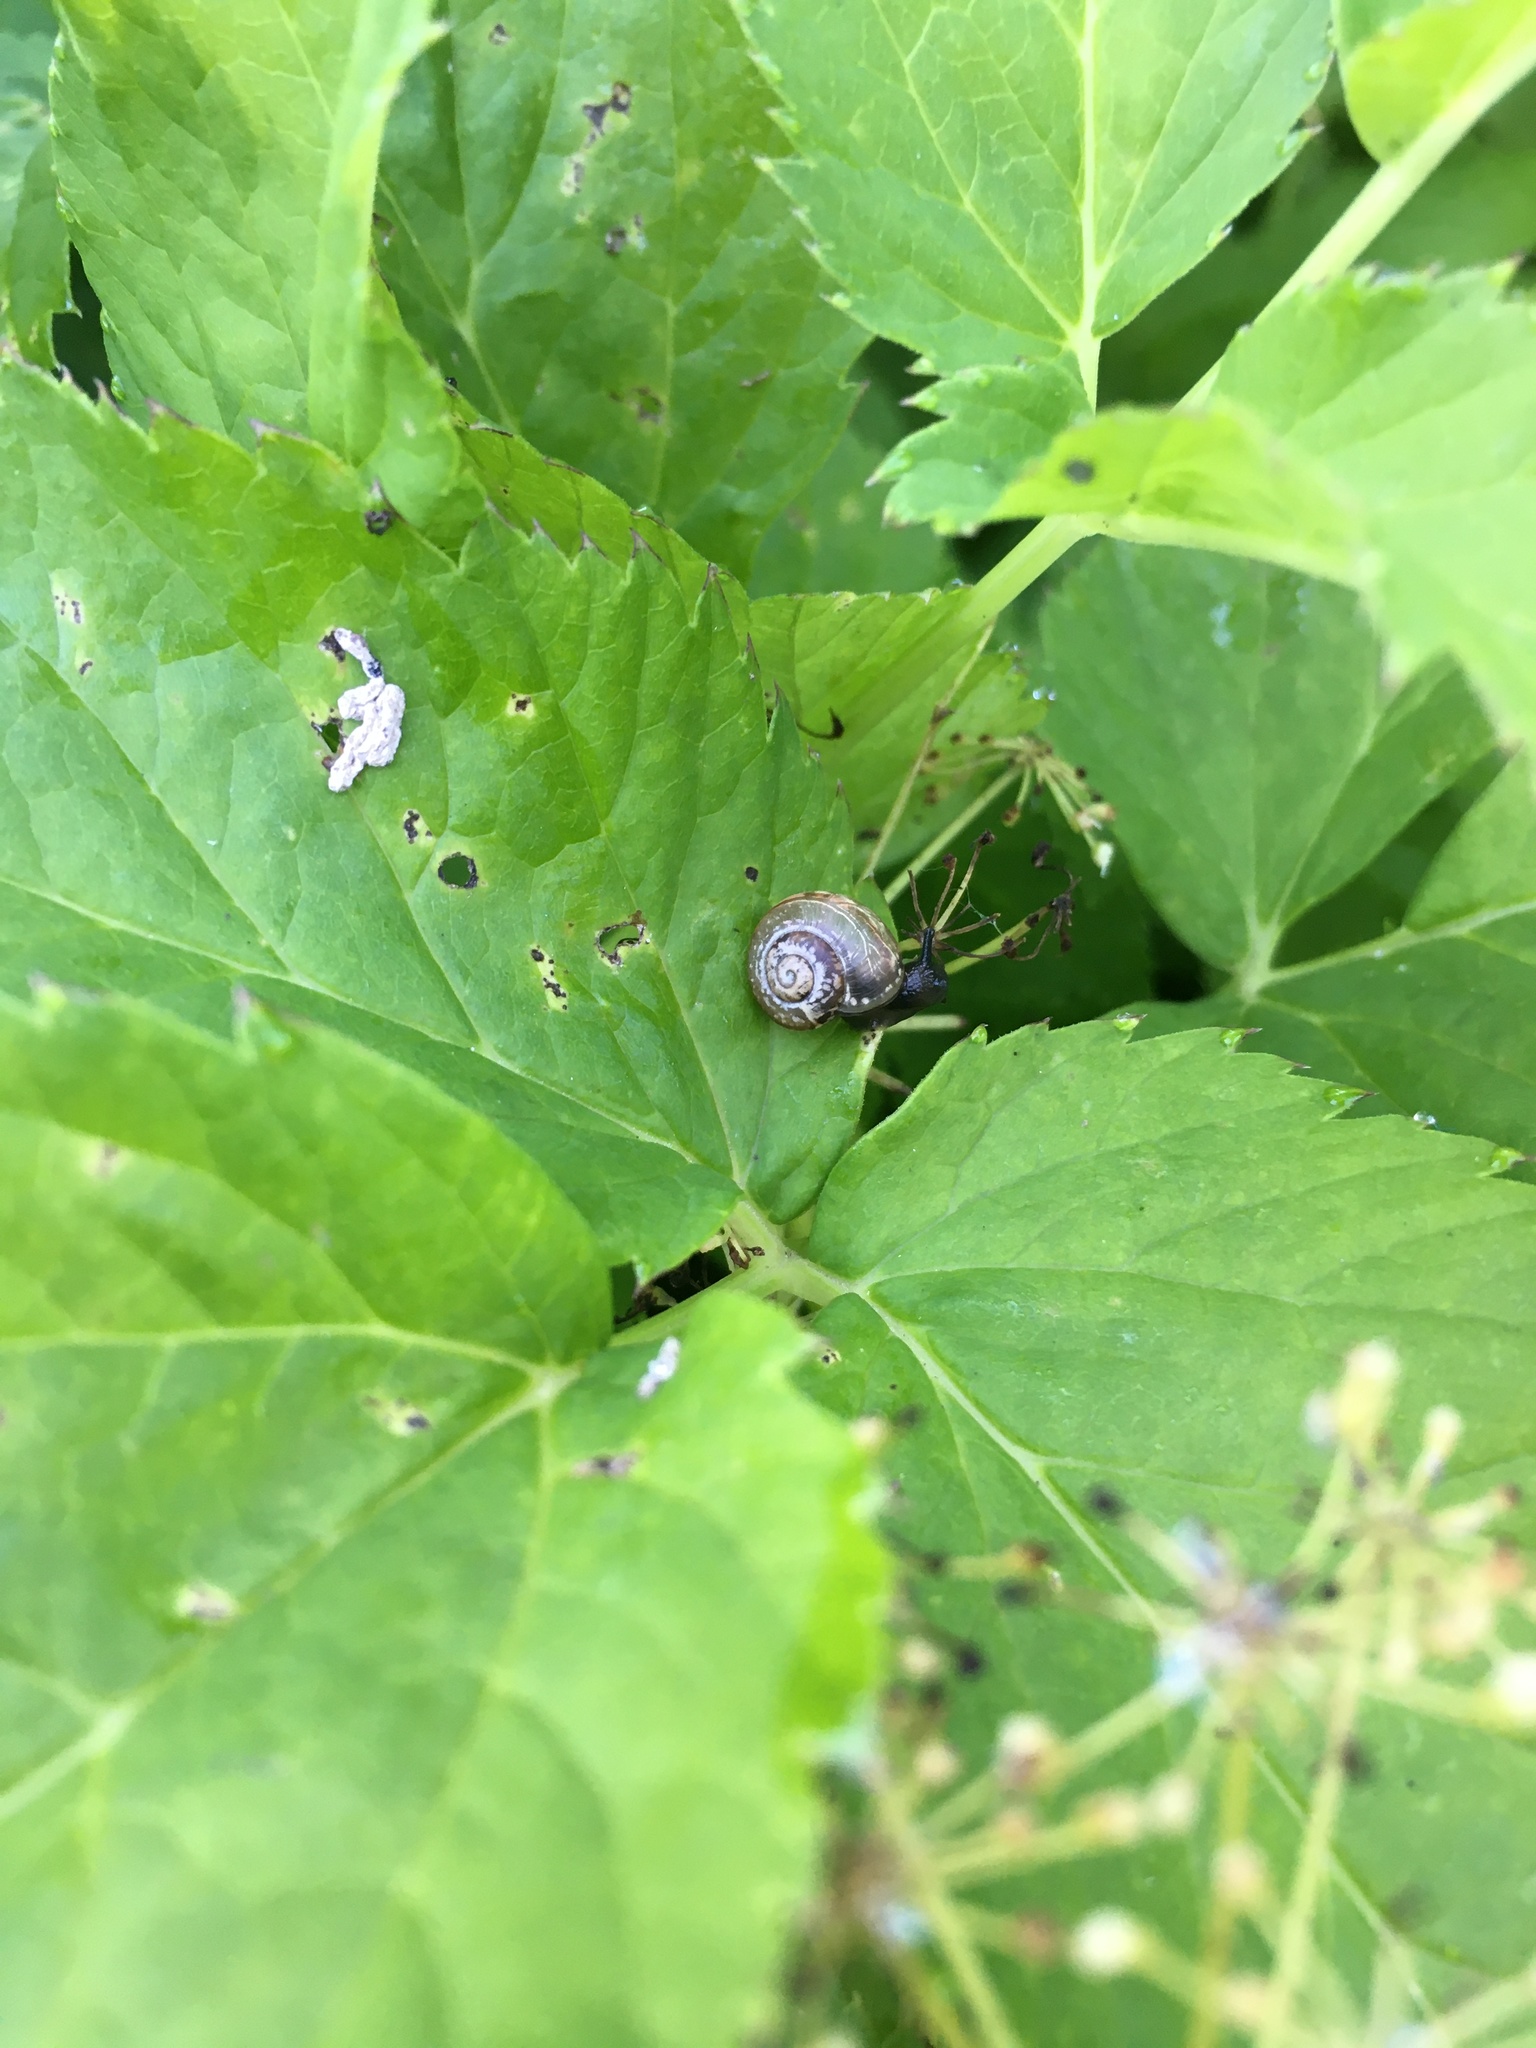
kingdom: Animalia
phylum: Mollusca
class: Gastropoda
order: Stylommatophora
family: Helicidae
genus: Arianta
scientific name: Arianta arbustorum
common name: Copse snail
